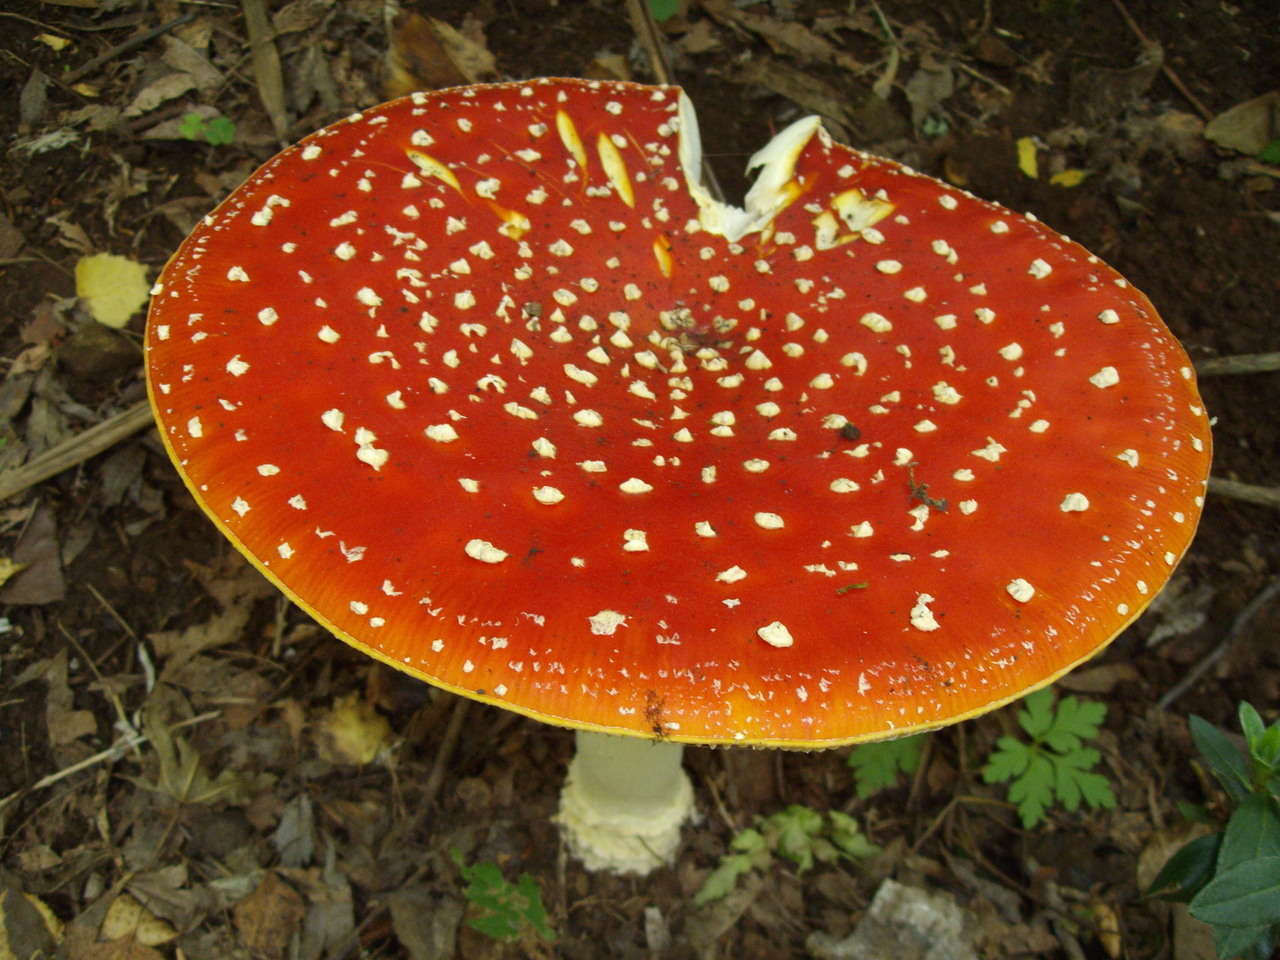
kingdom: Fungi
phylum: Basidiomycota
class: Agaricomycetes
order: Agaricales
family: Amanitaceae
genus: Amanita
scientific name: Amanita muscaria
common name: Fly agaric
